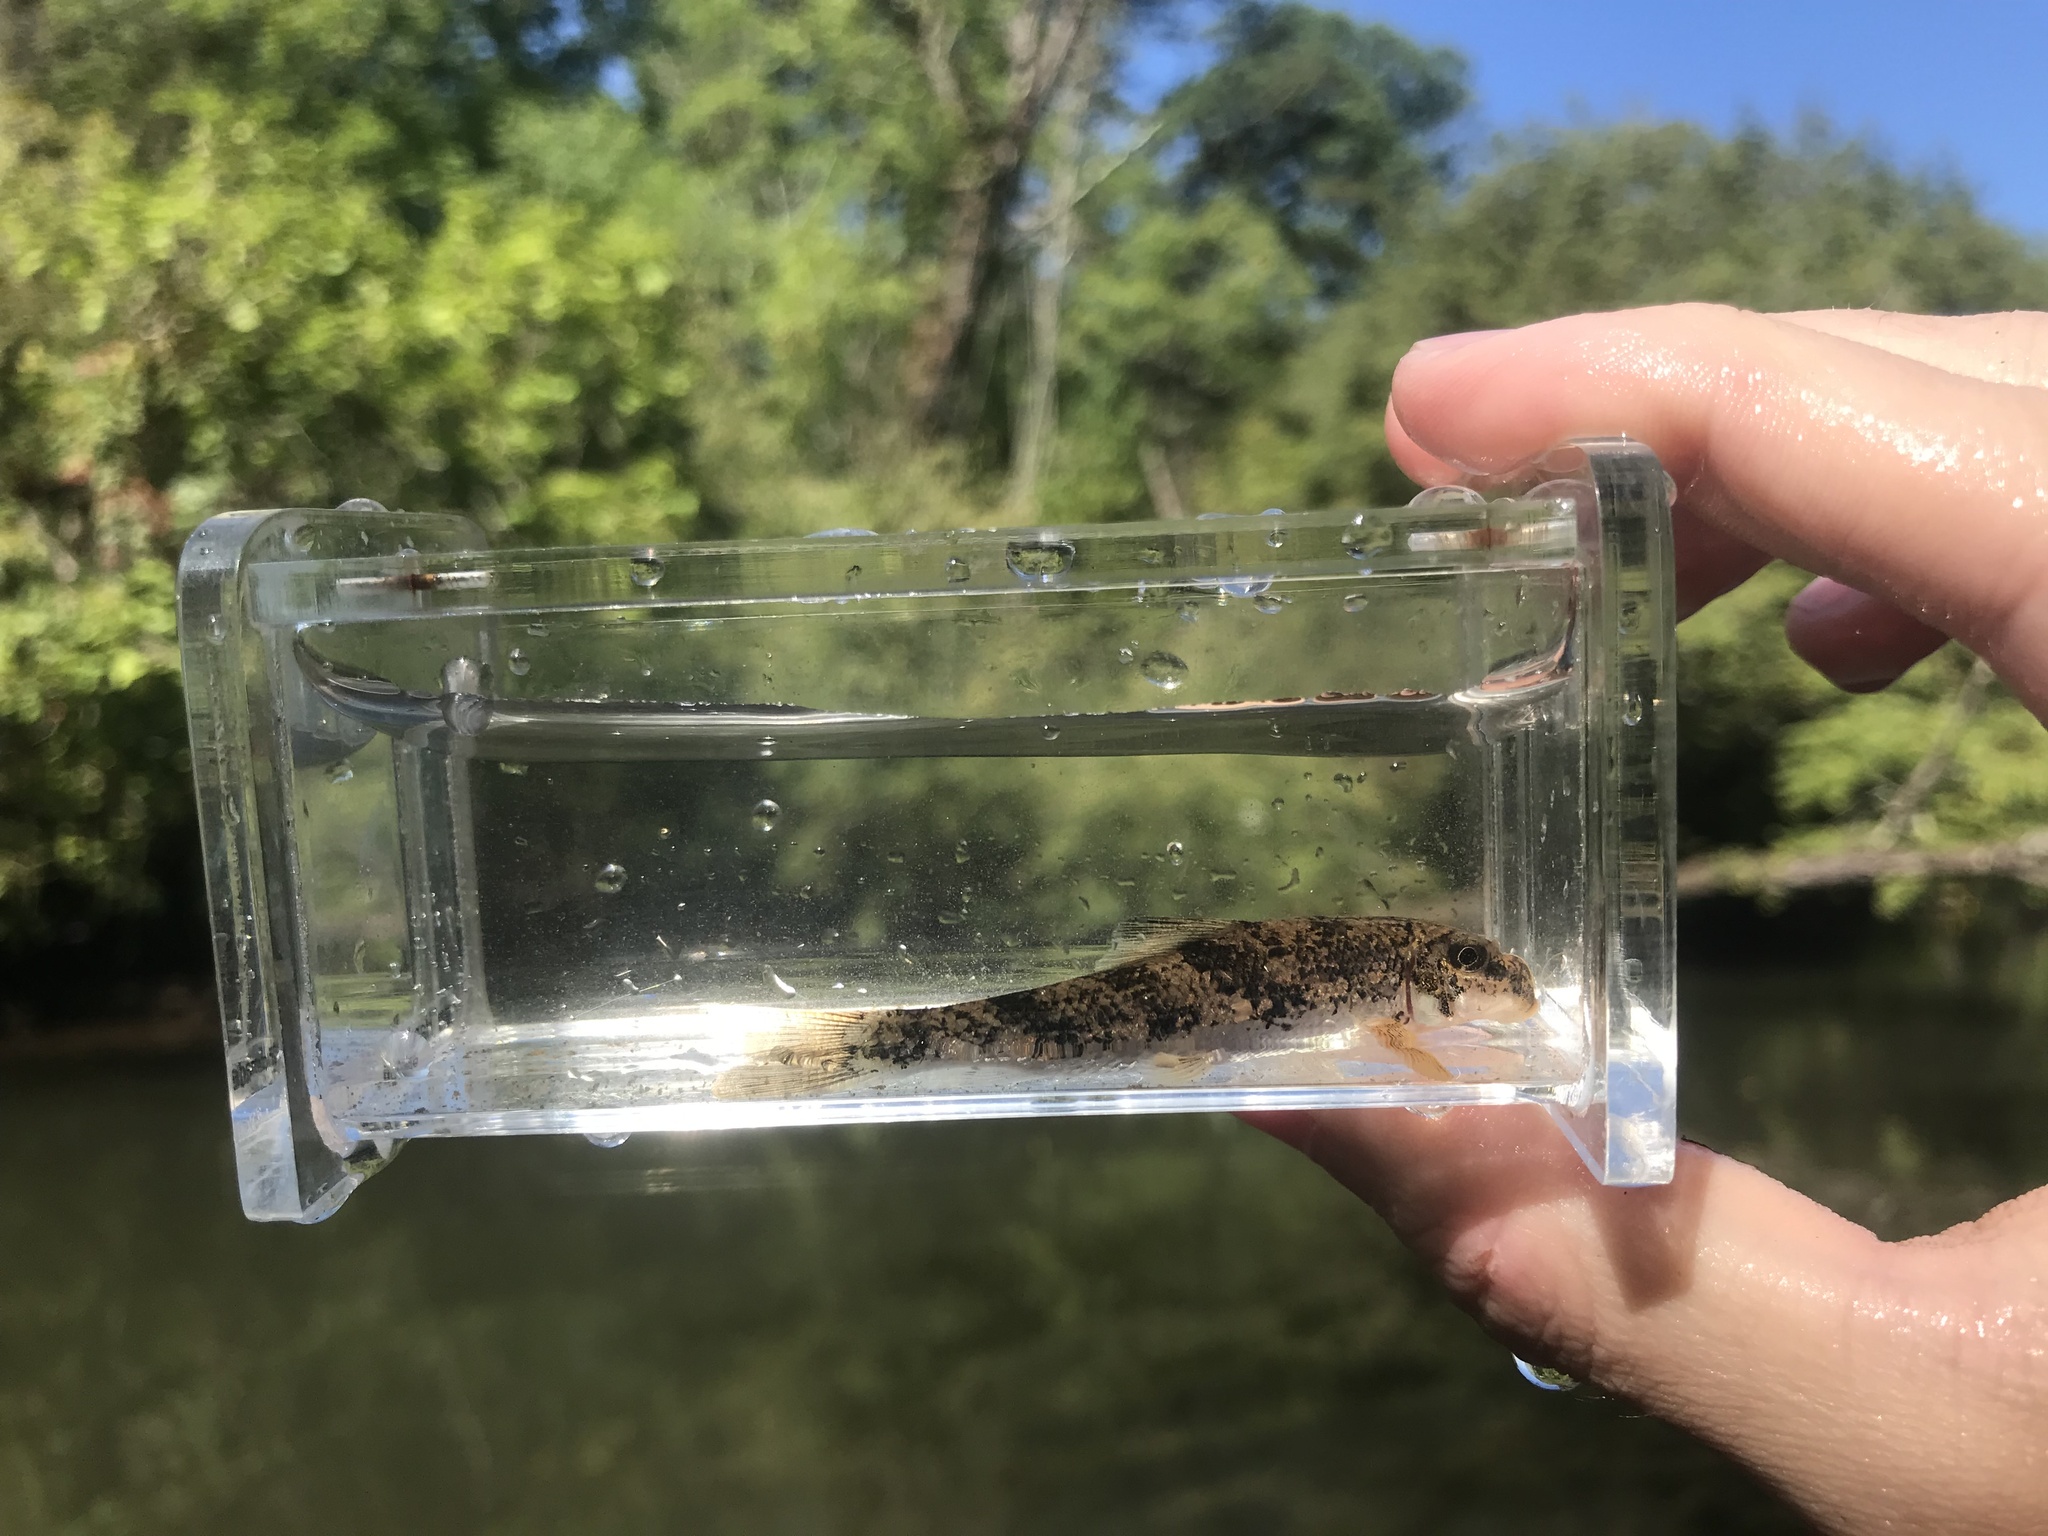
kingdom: Animalia
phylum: Chordata
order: Cypriniformes
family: Catostomidae
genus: Hypentelium
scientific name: Hypentelium nigricans
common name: Northern hog sucker
